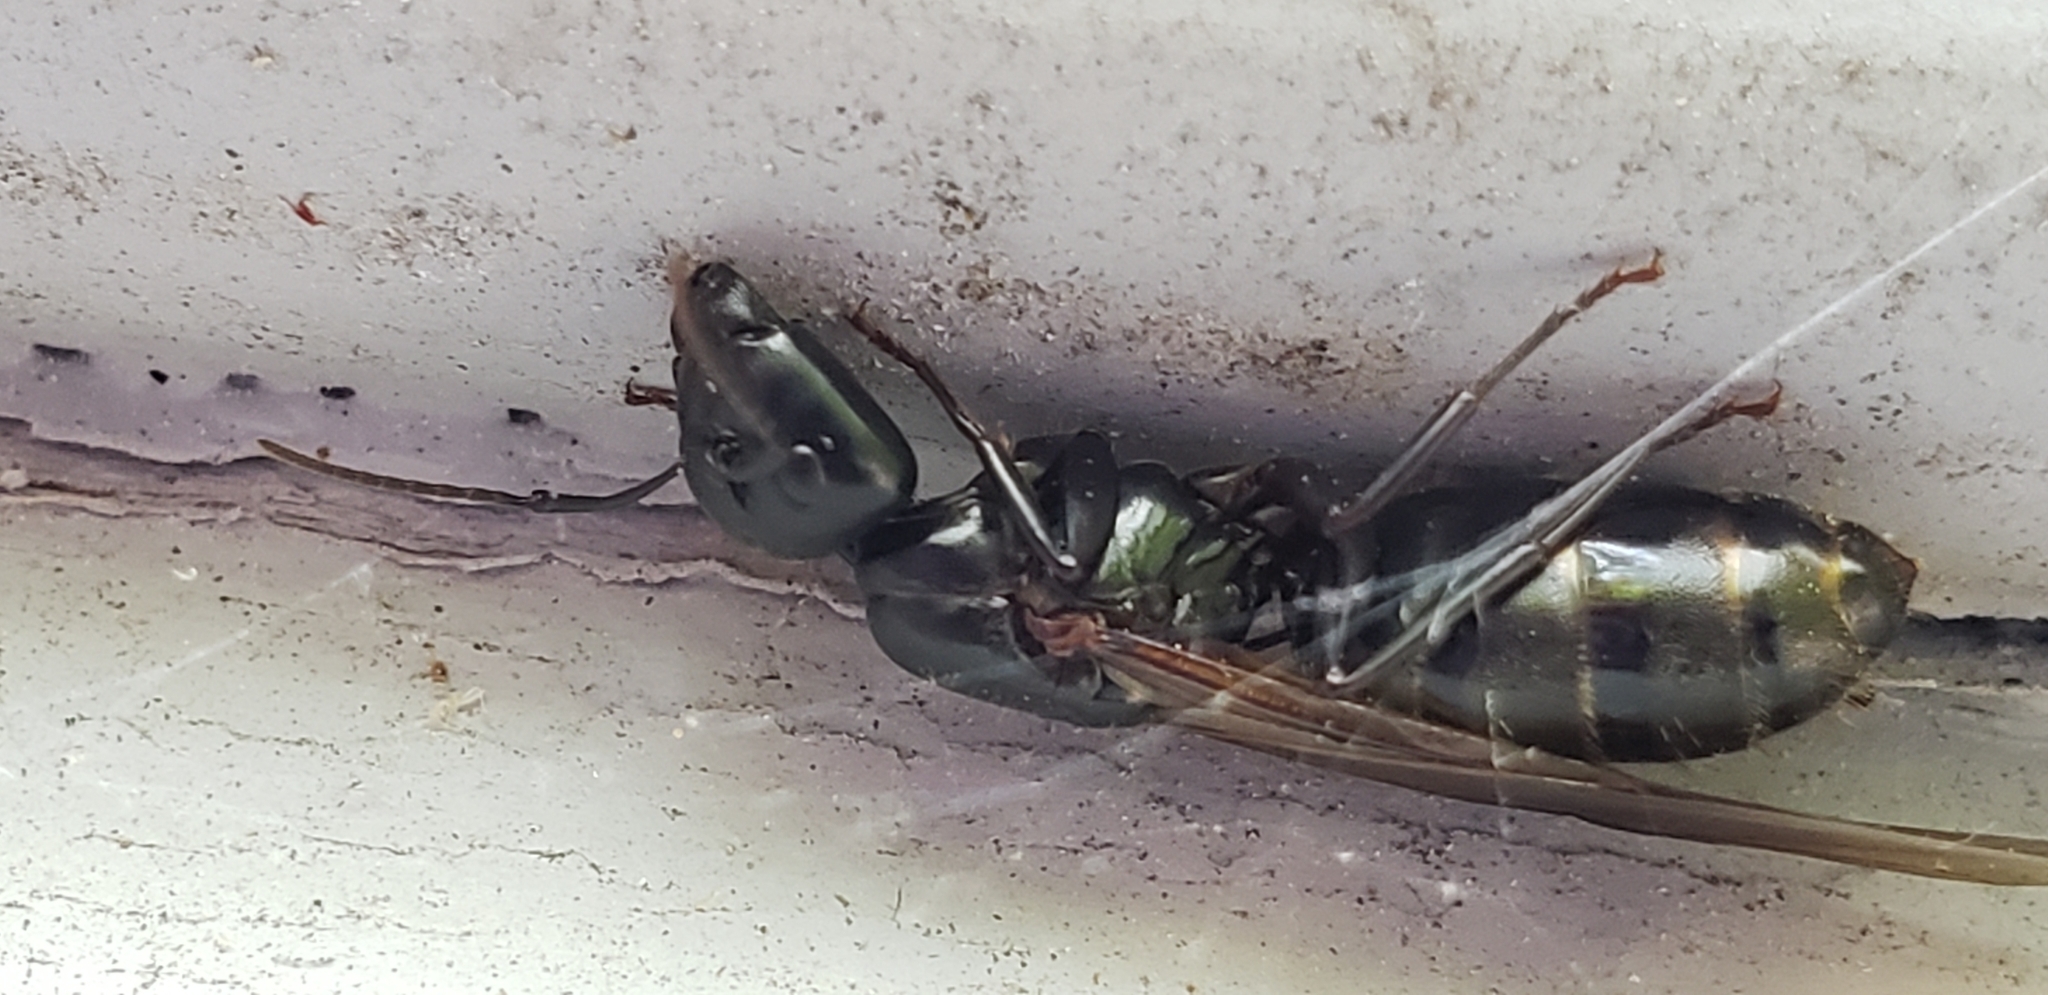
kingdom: Animalia
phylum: Arthropoda
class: Insecta
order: Hymenoptera
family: Formicidae
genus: Camponotus
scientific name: Camponotus pennsylvanicus
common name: Black carpenter ant
